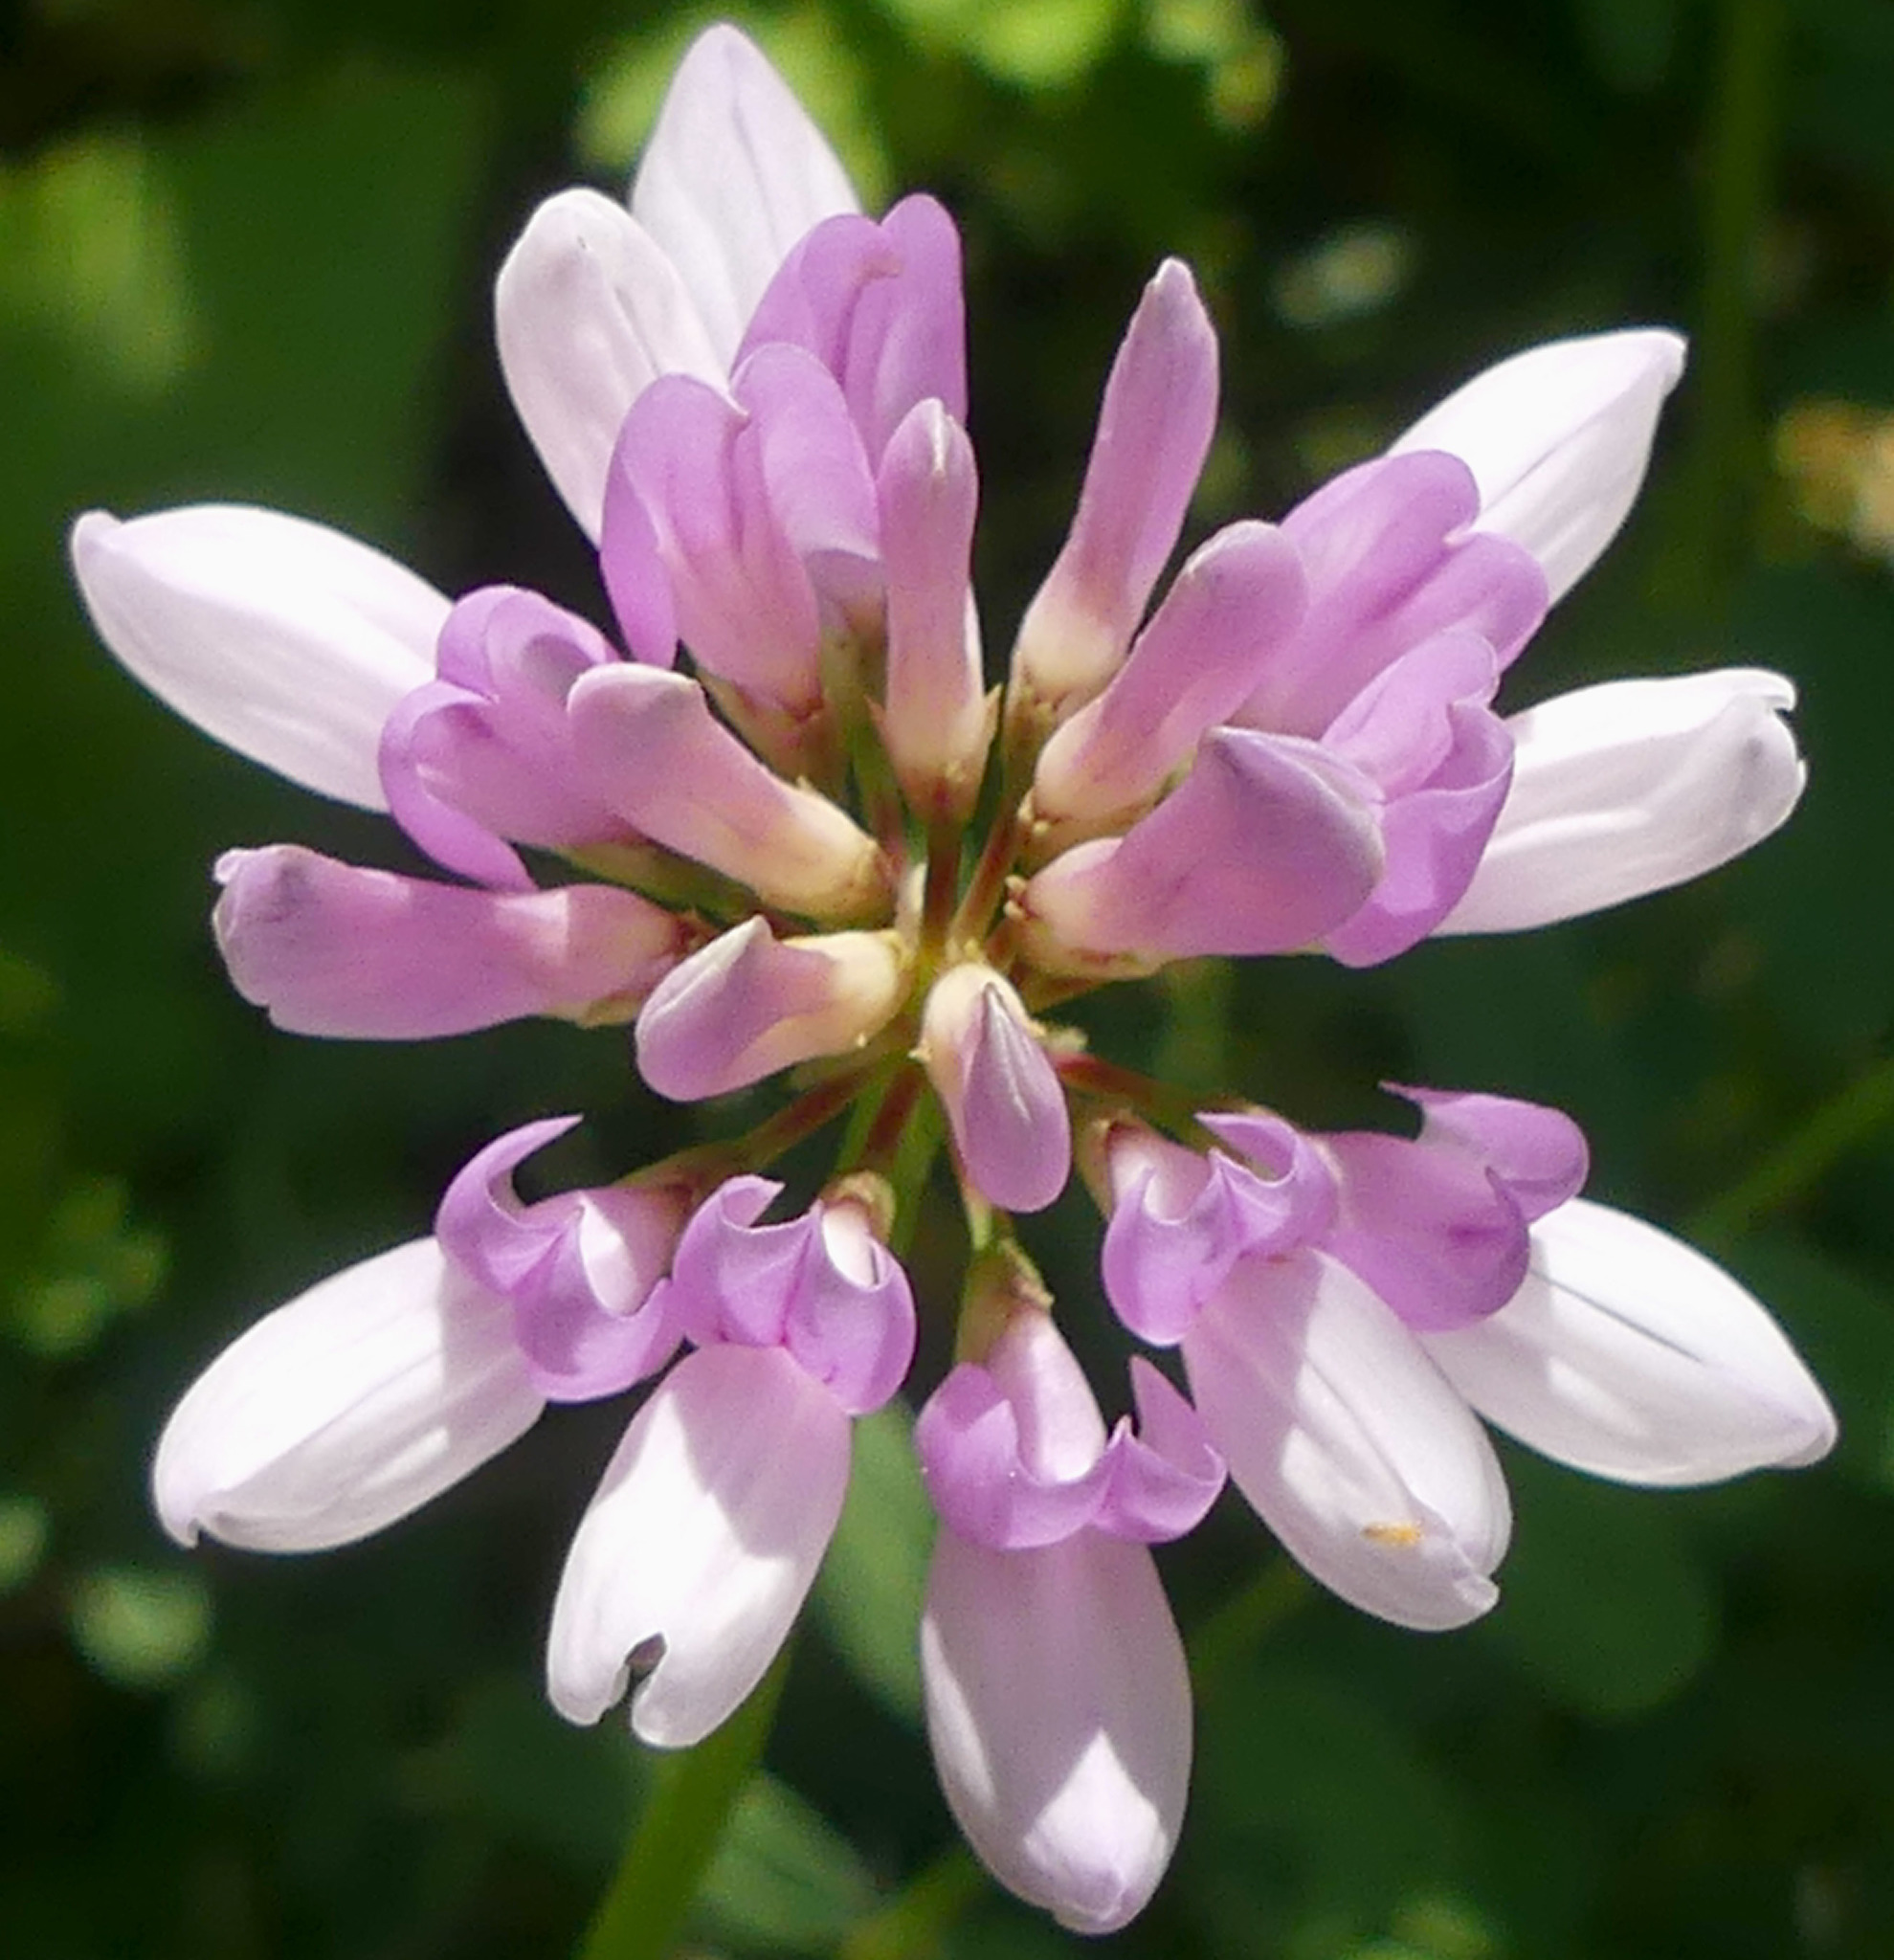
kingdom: Plantae
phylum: Tracheophyta
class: Magnoliopsida
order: Fabales
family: Fabaceae
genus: Coronilla
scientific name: Coronilla varia
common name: Crownvetch
